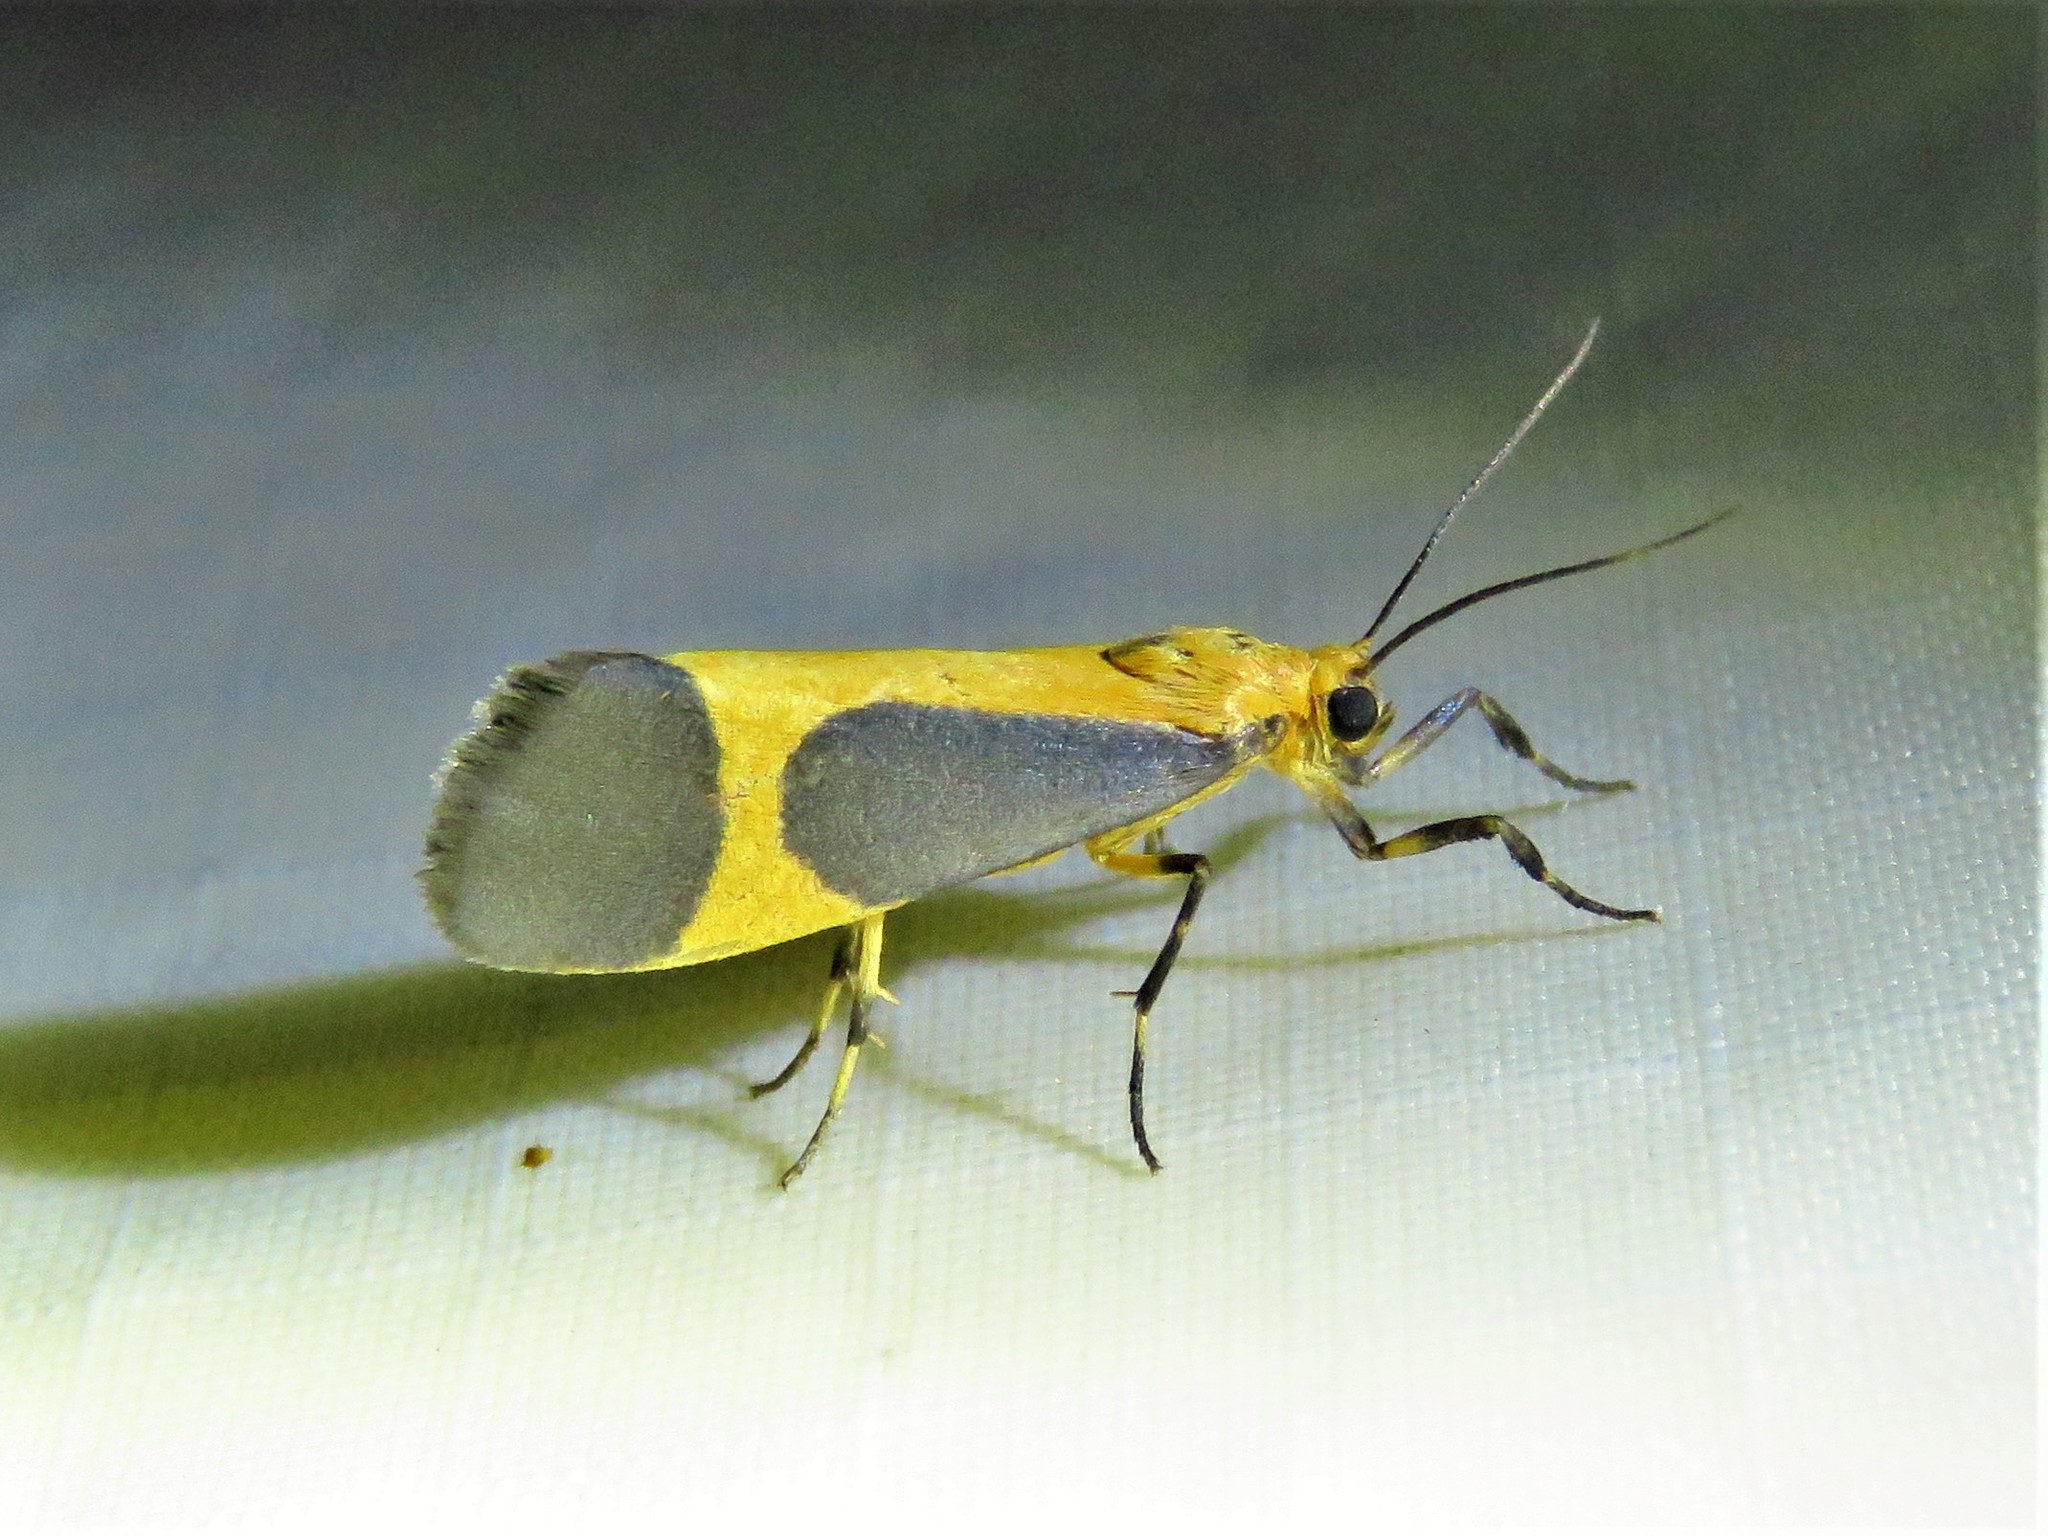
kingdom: Animalia
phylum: Arthropoda
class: Insecta
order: Lepidoptera
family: Erebidae
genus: Cisthene
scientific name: Cisthene picta
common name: Pictured lichen moth
